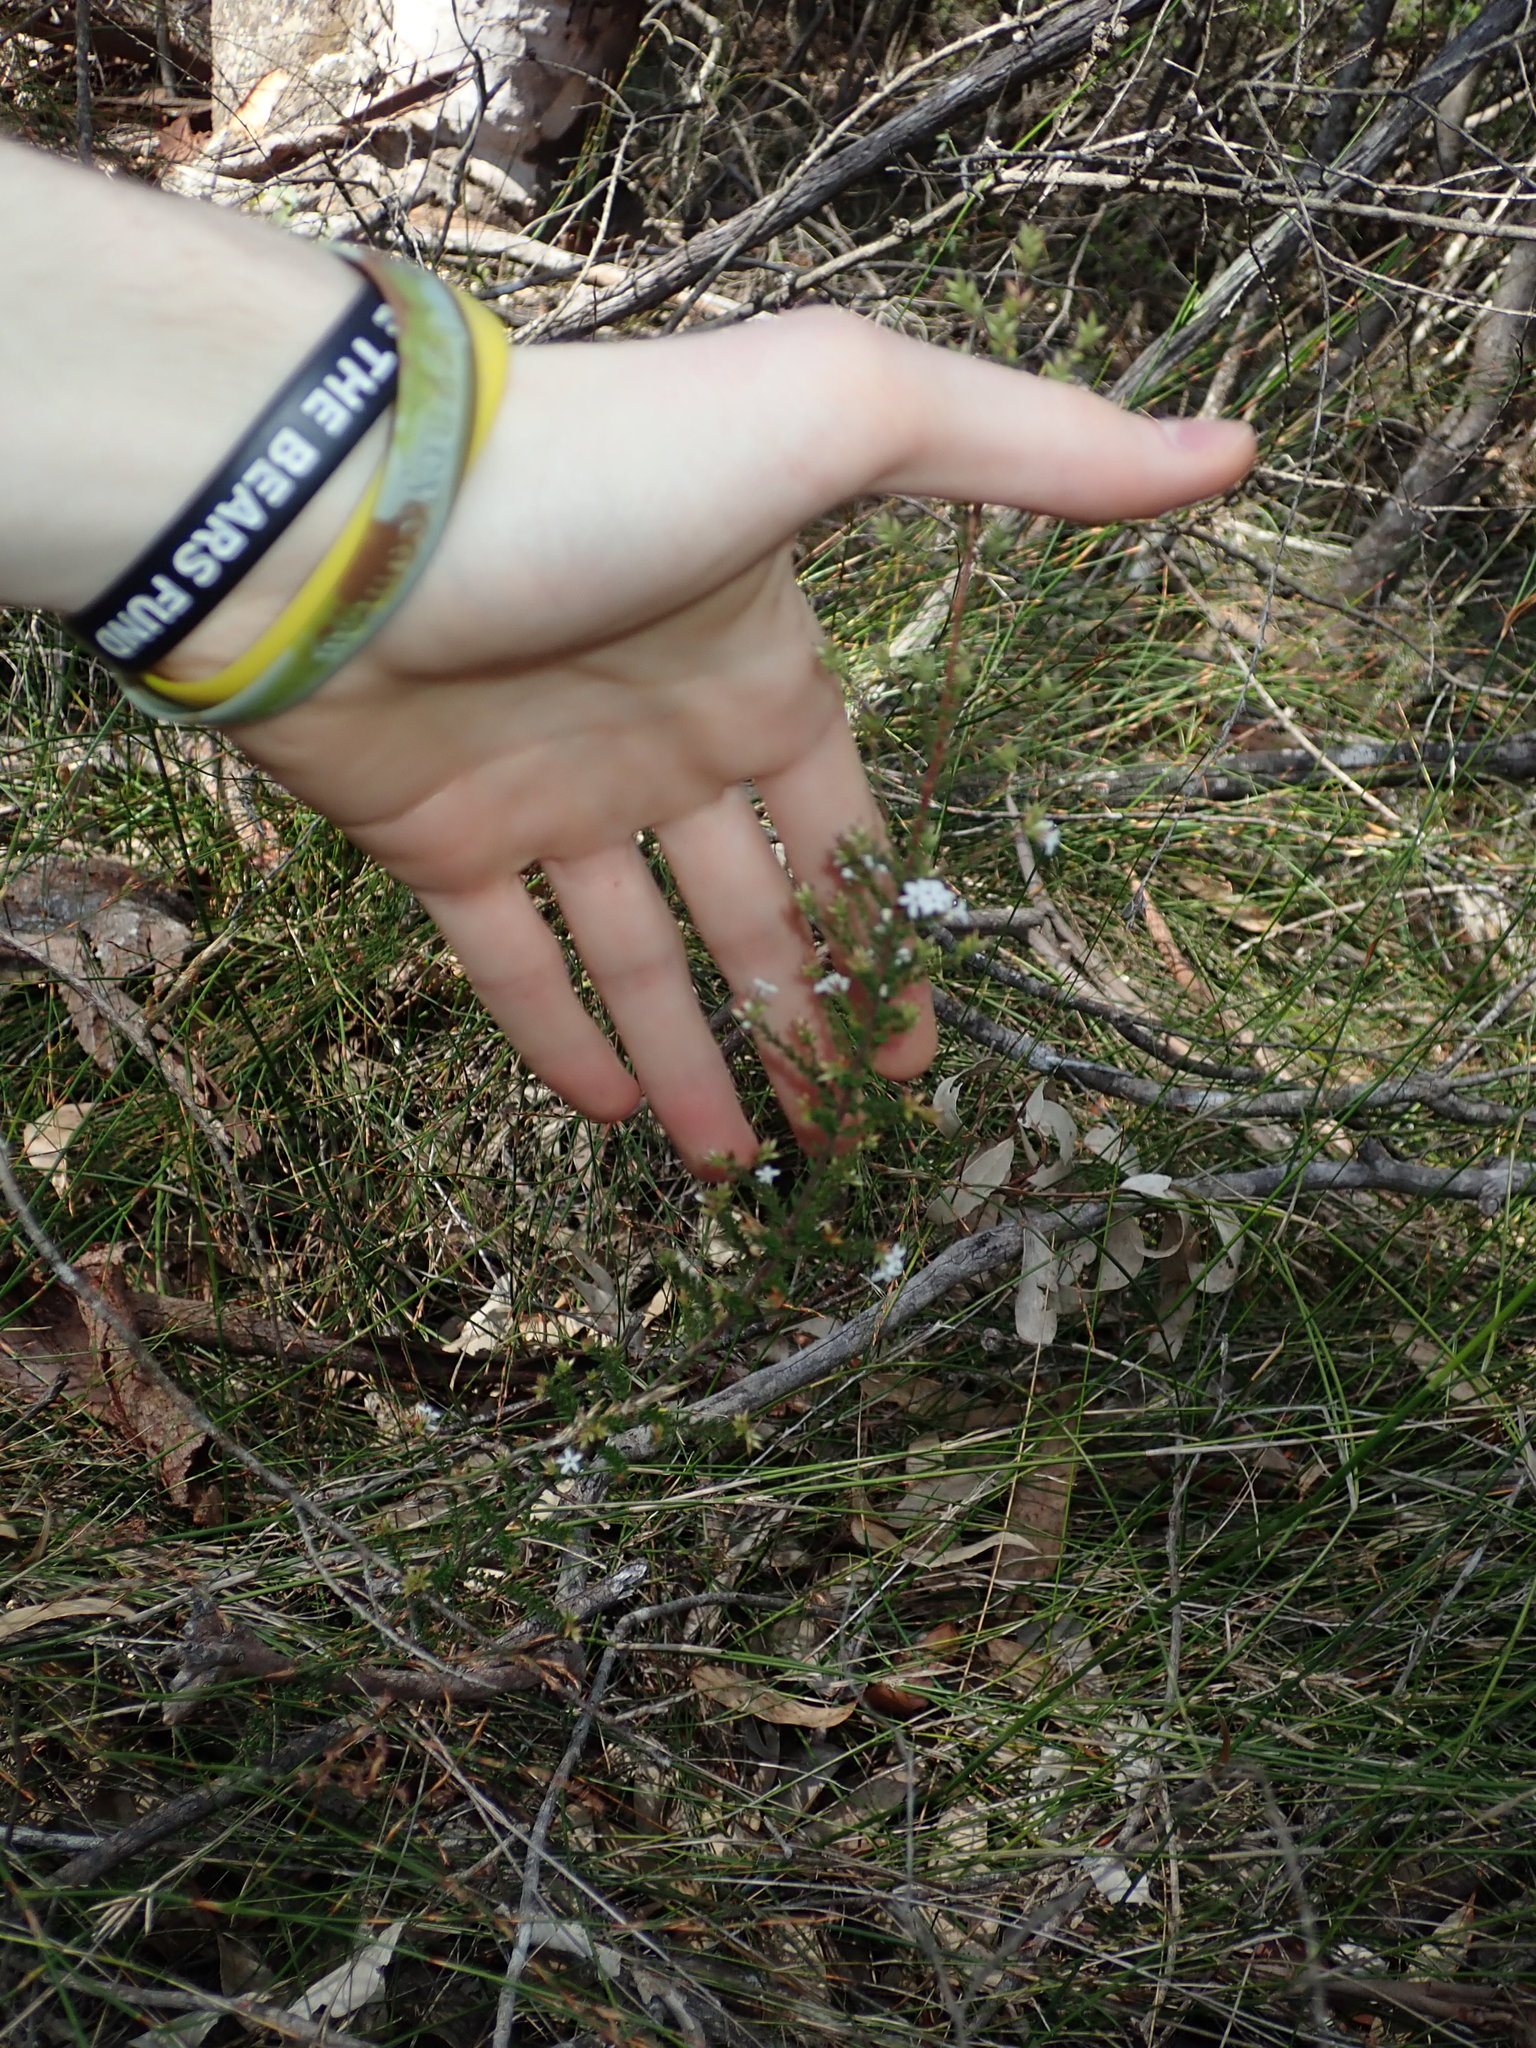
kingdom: Plantae
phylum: Tracheophyta
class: Magnoliopsida
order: Ericales
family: Ericaceae
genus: Leucopogon
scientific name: Leucopogon microphyllus
